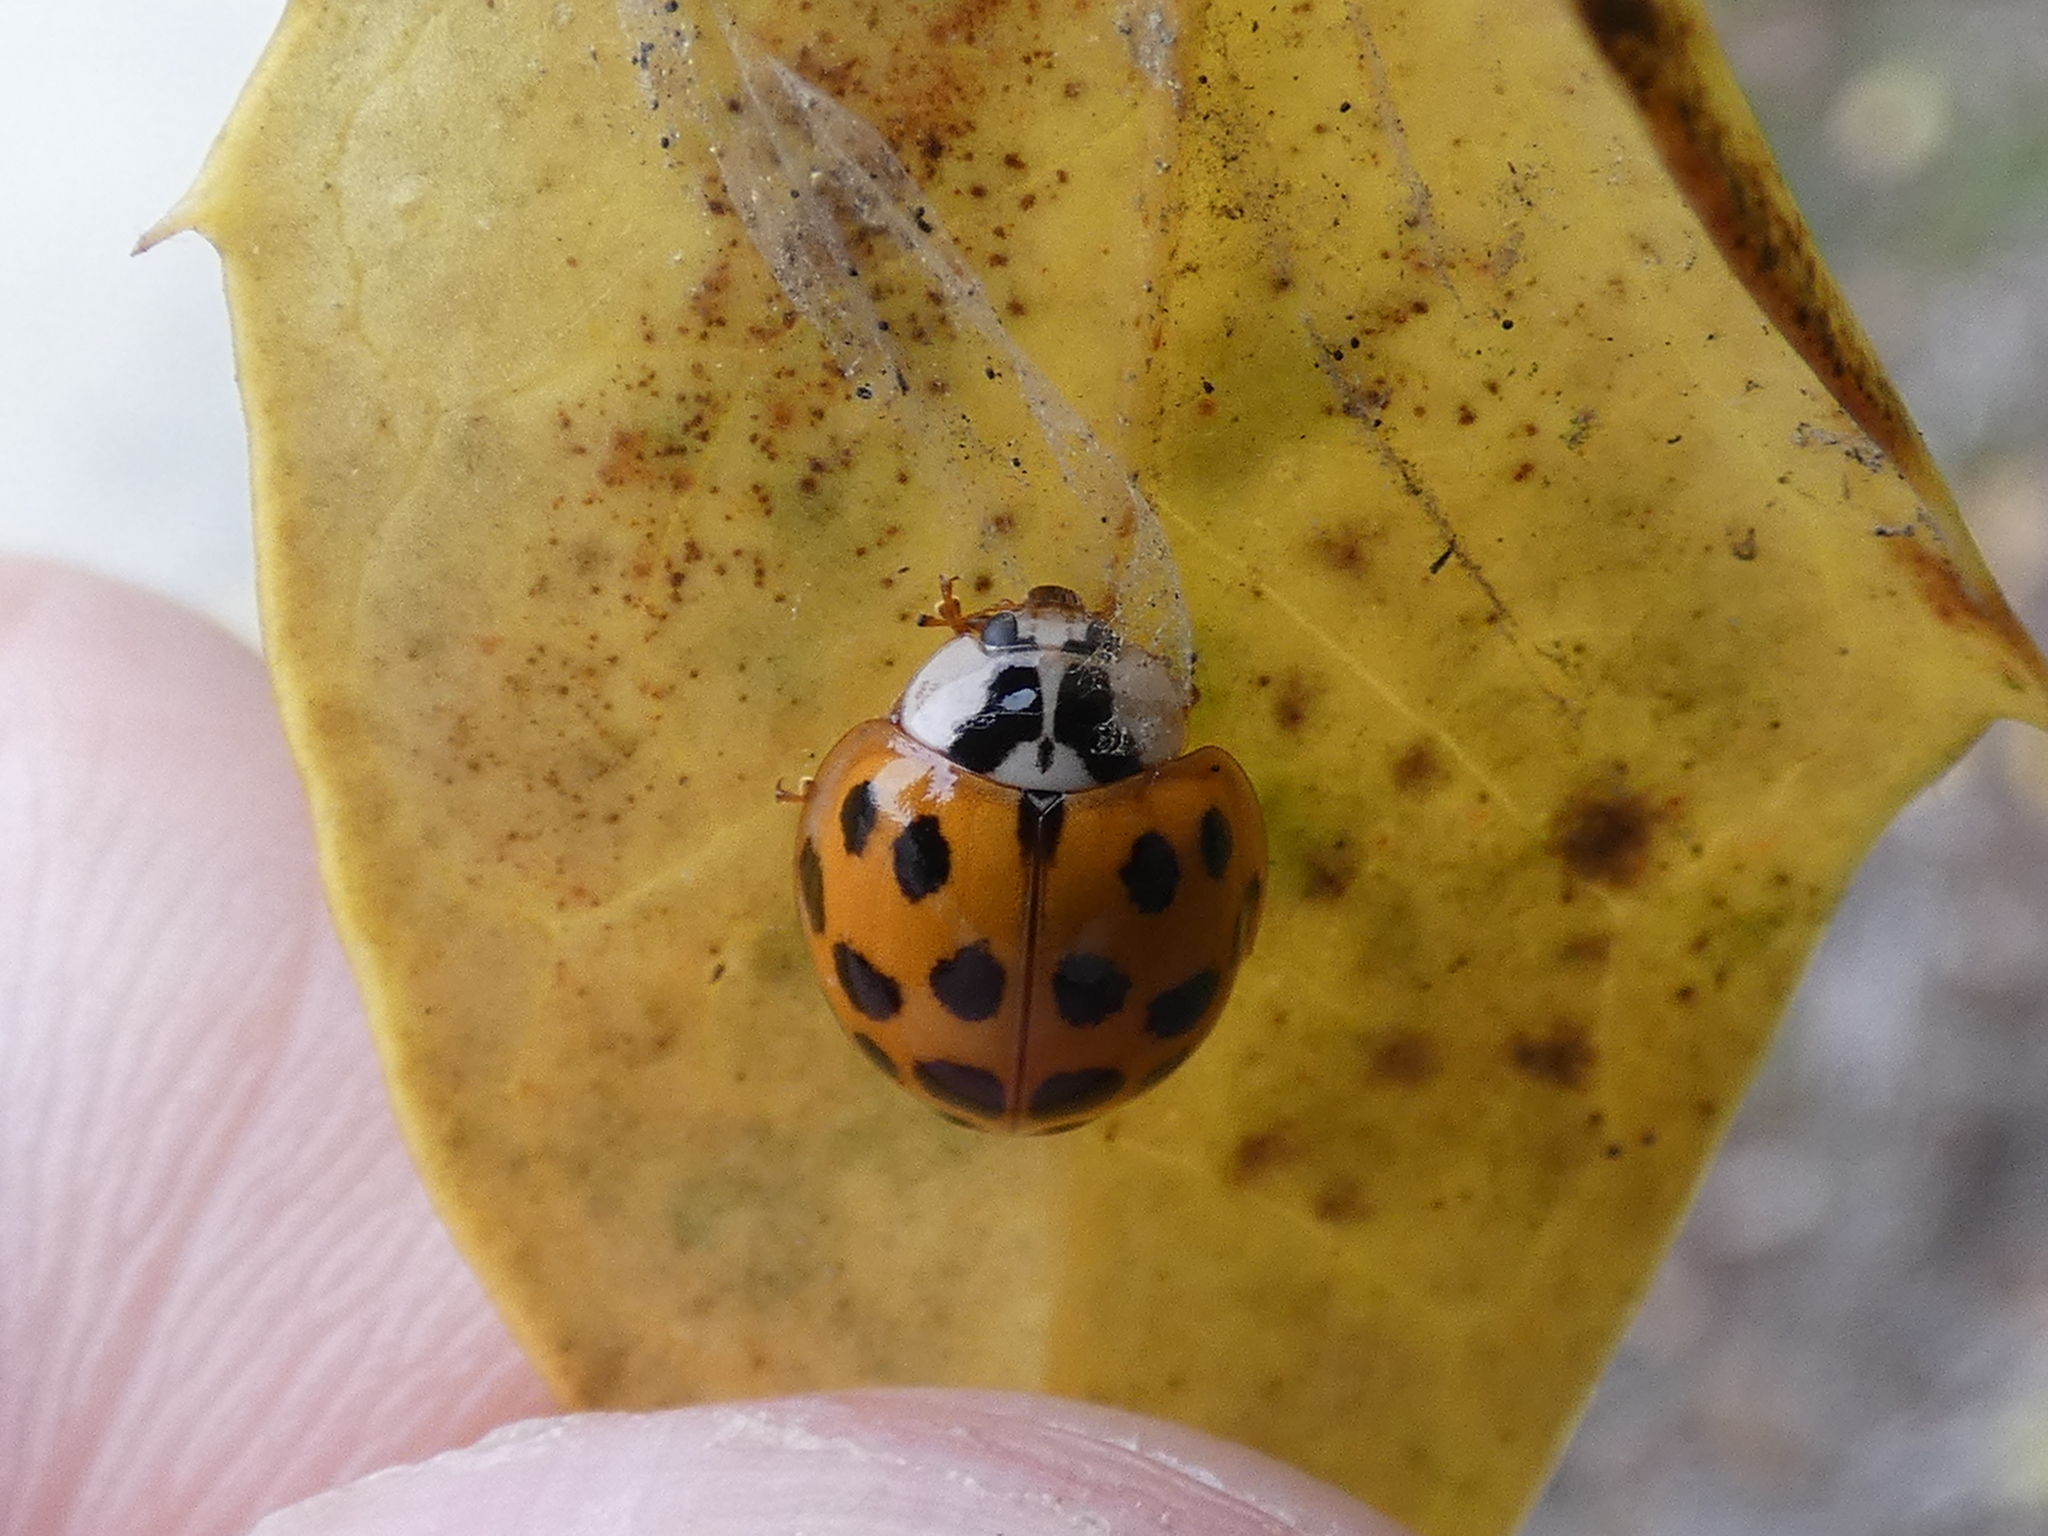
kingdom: Animalia
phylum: Arthropoda
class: Insecta
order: Coleoptera
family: Coccinellidae
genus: Harmonia
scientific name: Harmonia axyridis
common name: Harlequin ladybird
